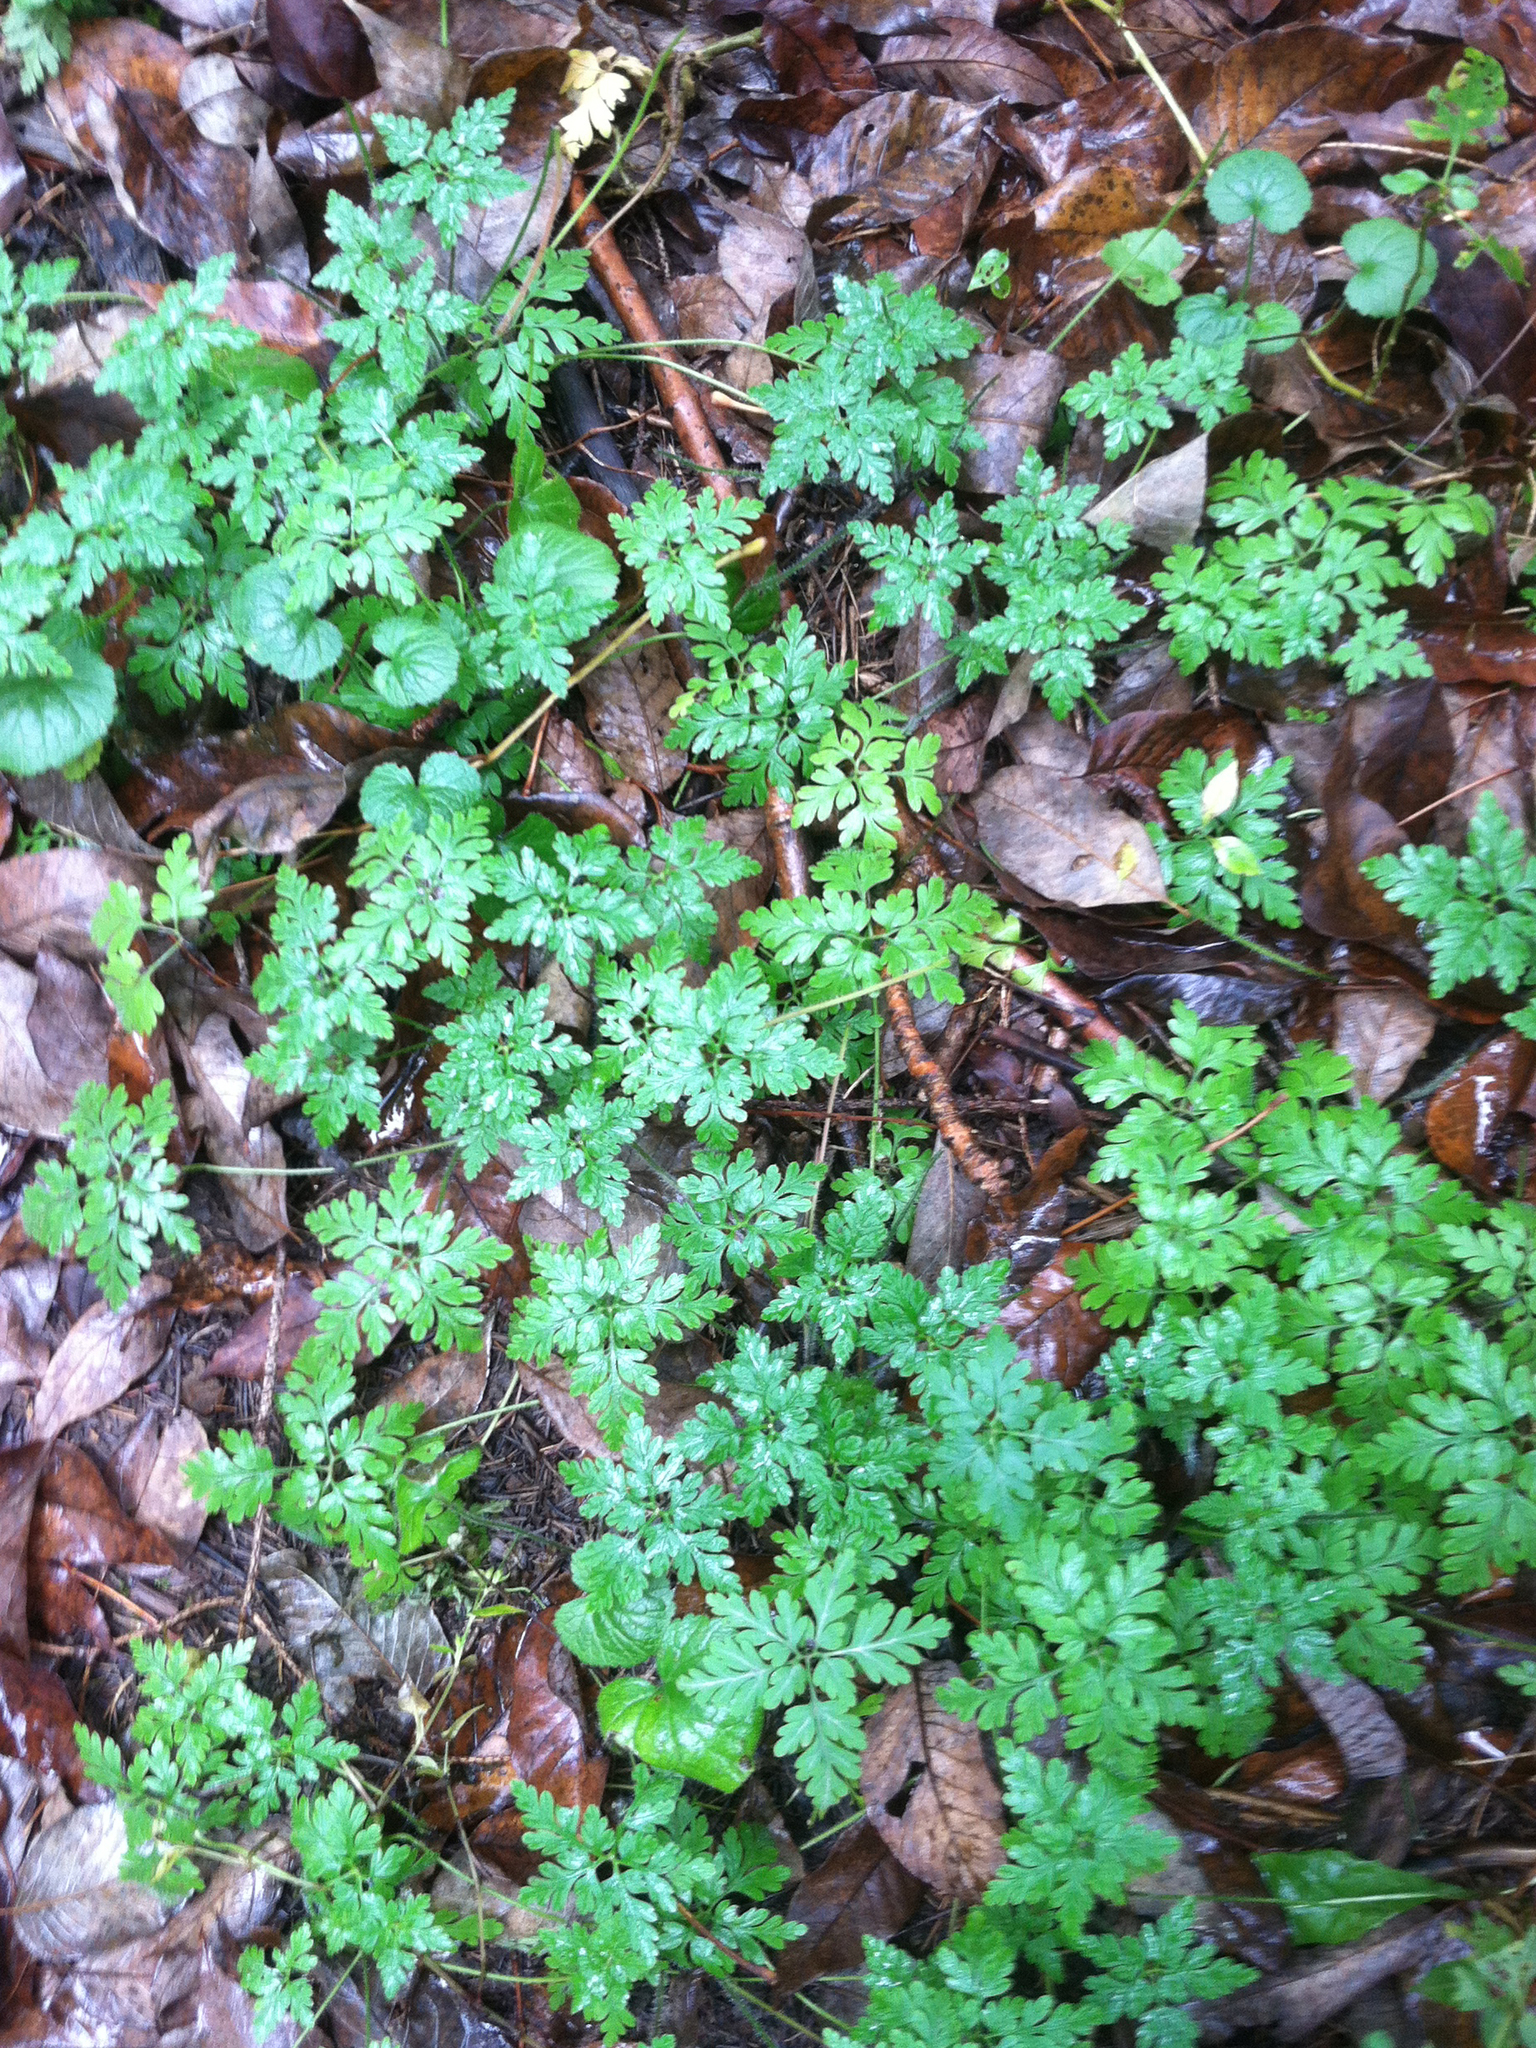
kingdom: Plantae
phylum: Tracheophyta
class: Magnoliopsida
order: Geraniales
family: Geraniaceae
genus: Geranium
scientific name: Geranium robertianum
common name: Herb-robert
